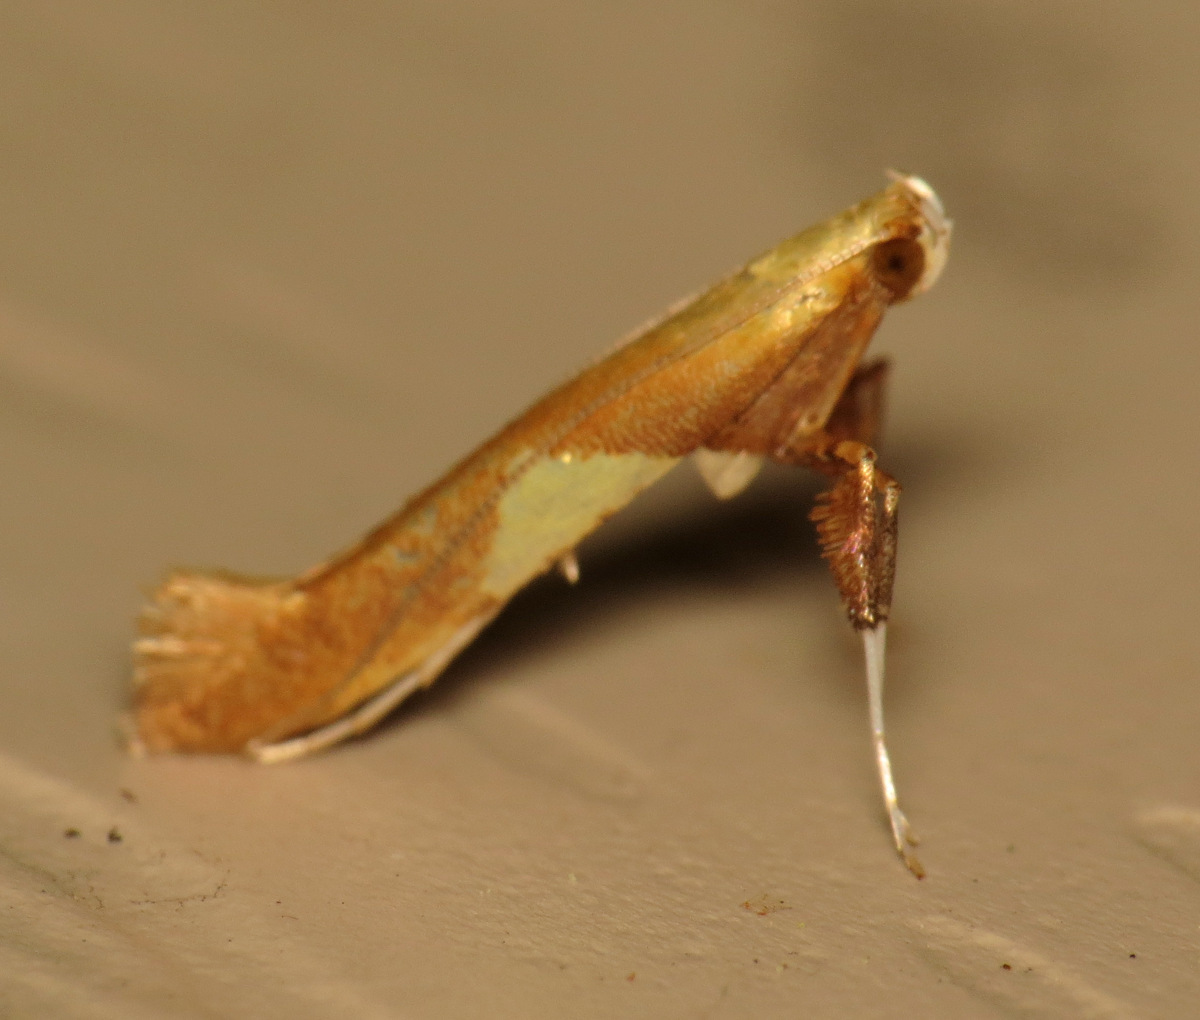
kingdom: Animalia
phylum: Arthropoda
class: Insecta
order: Lepidoptera
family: Gracillariidae
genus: Caloptilia
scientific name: Caloptilia packardella
